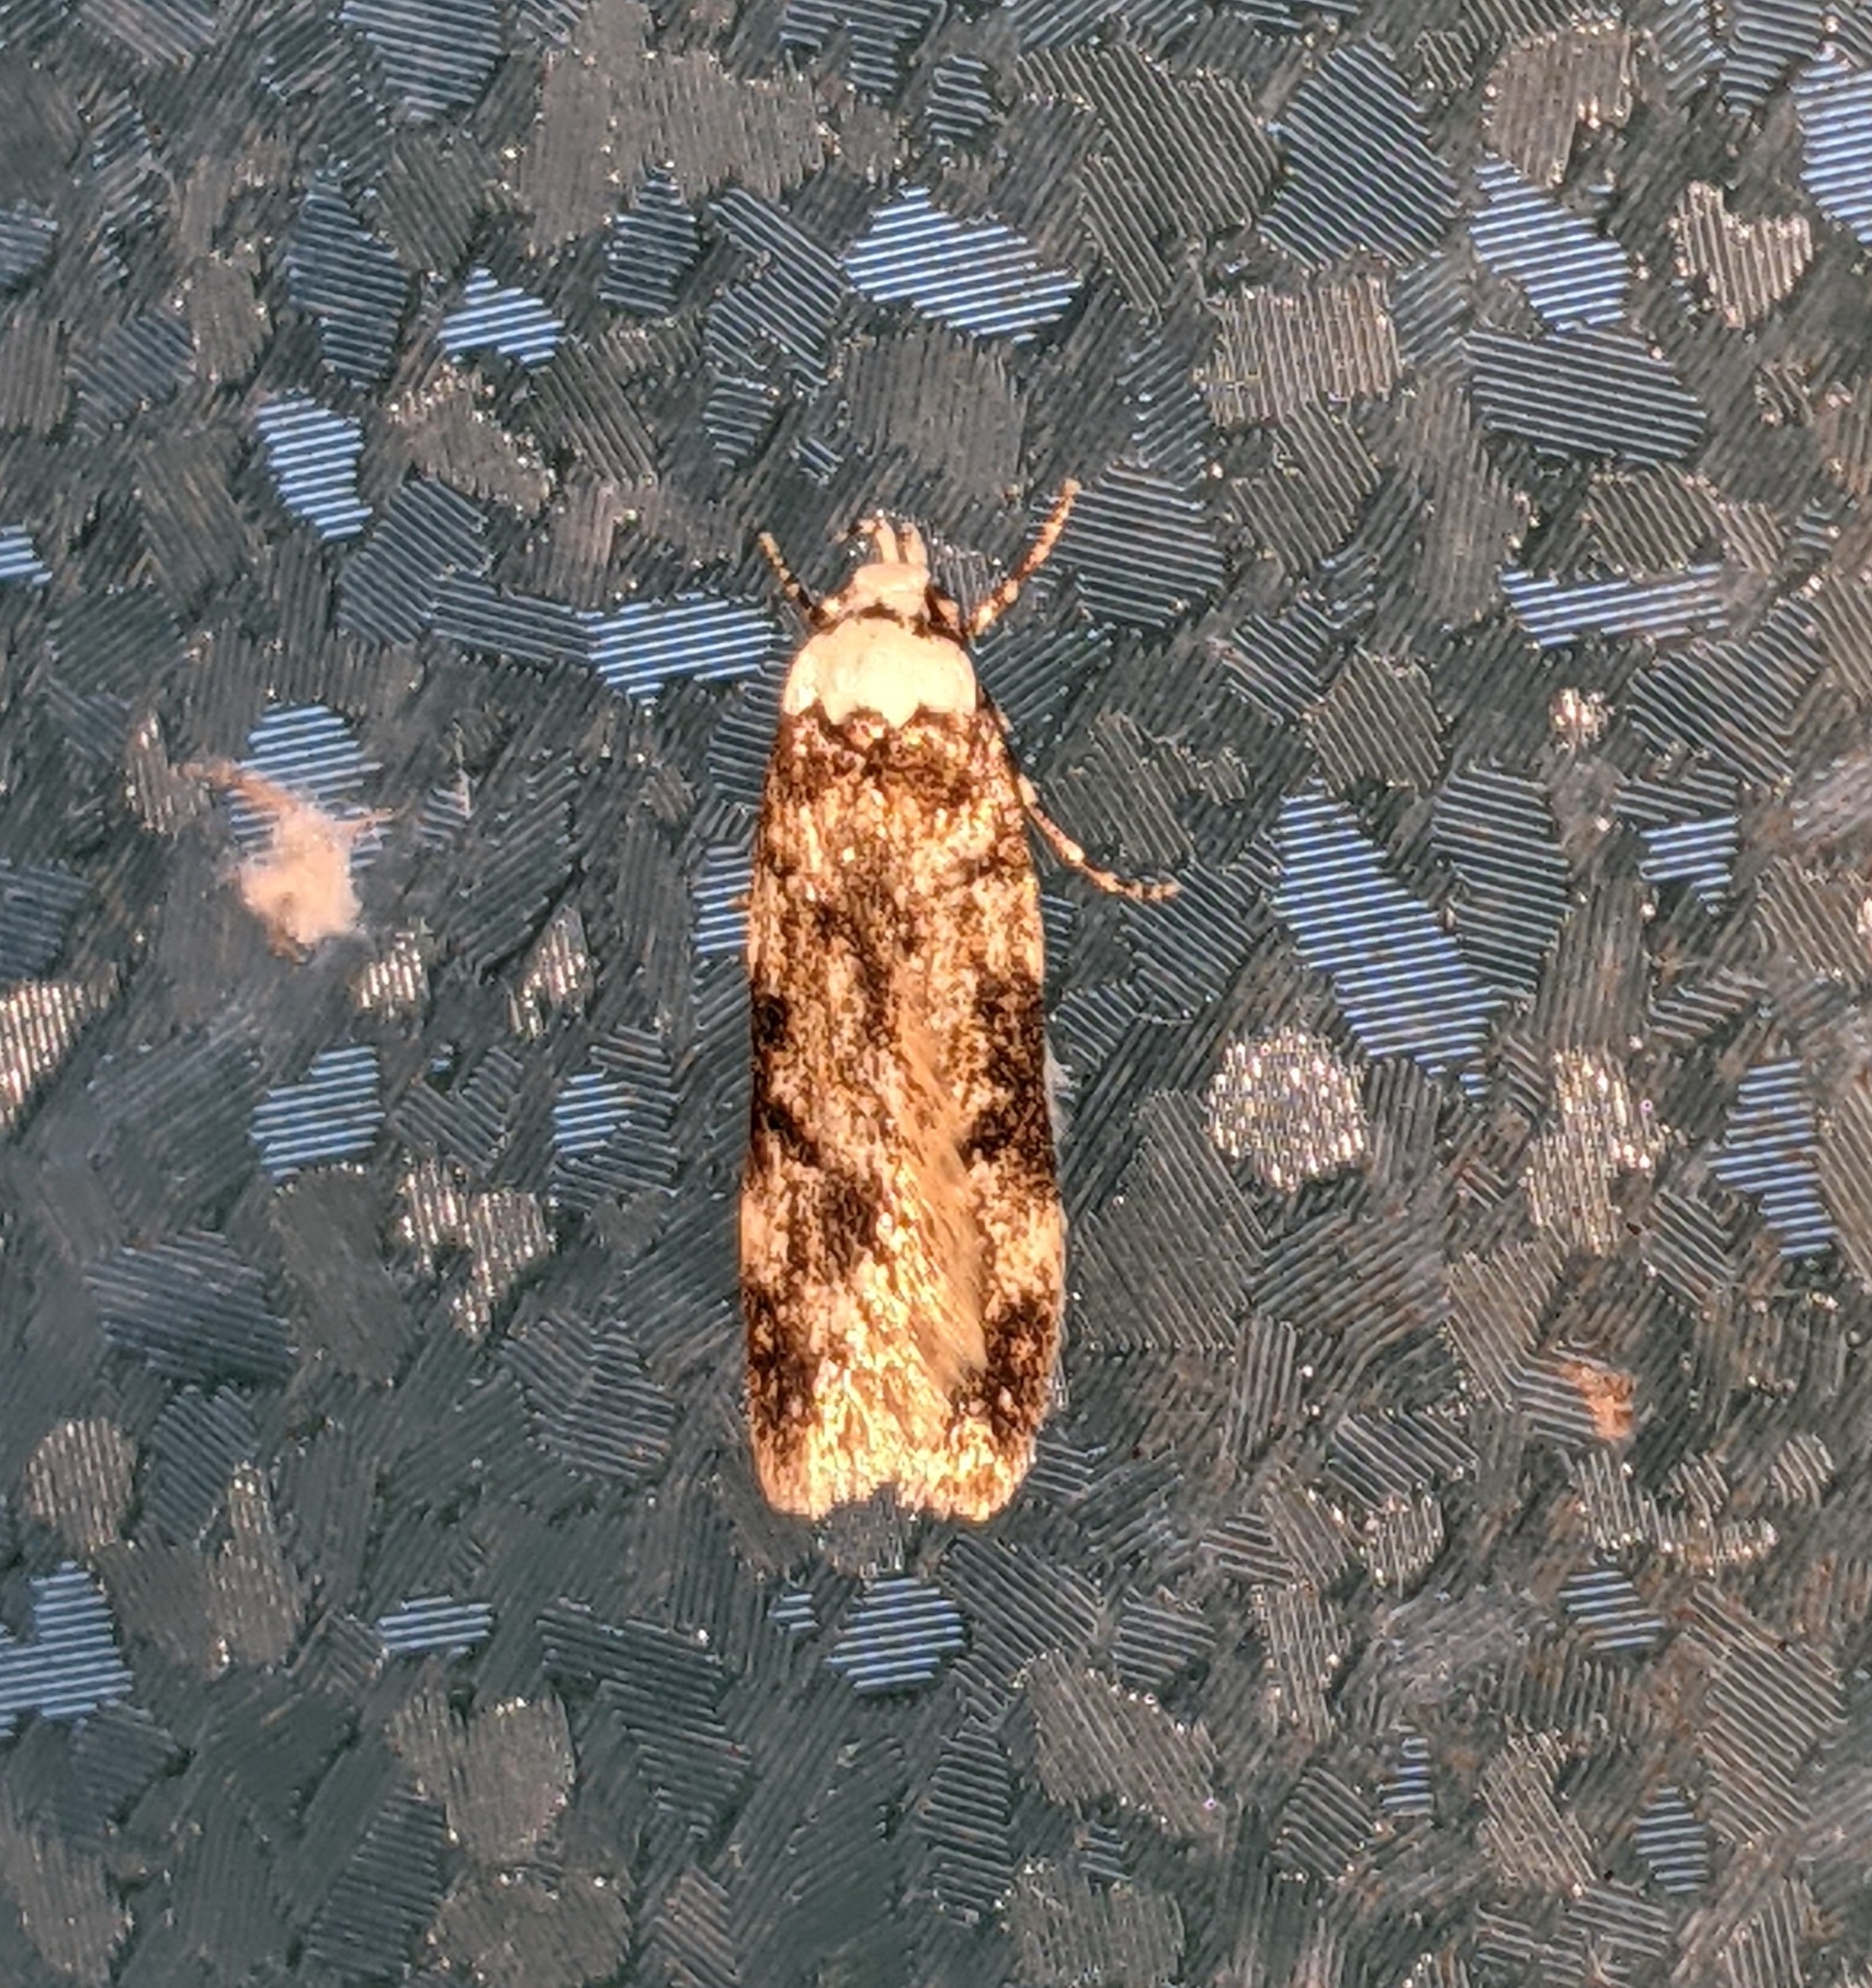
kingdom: Animalia
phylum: Arthropoda
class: Insecta
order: Lepidoptera
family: Oecophoridae
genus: Endrosis
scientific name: Endrosis sarcitrella
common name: White-shouldered house moth
